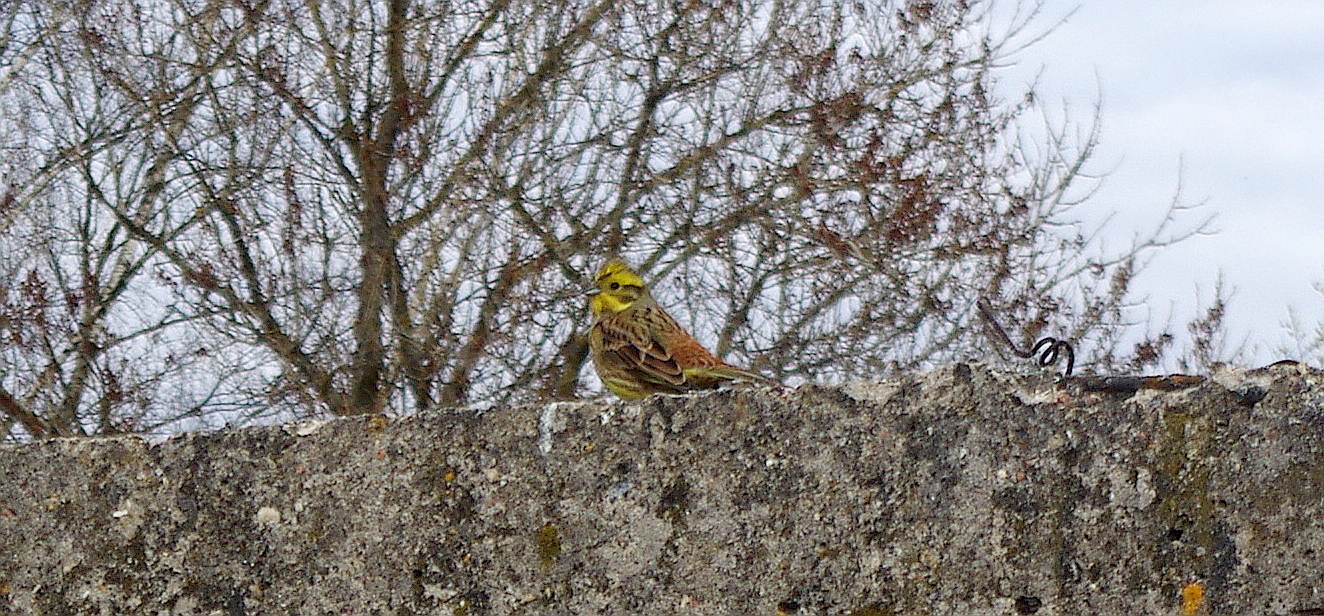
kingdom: Animalia
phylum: Chordata
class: Aves
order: Passeriformes
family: Emberizidae
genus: Emberiza
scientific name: Emberiza citrinella
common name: Yellowhammer
